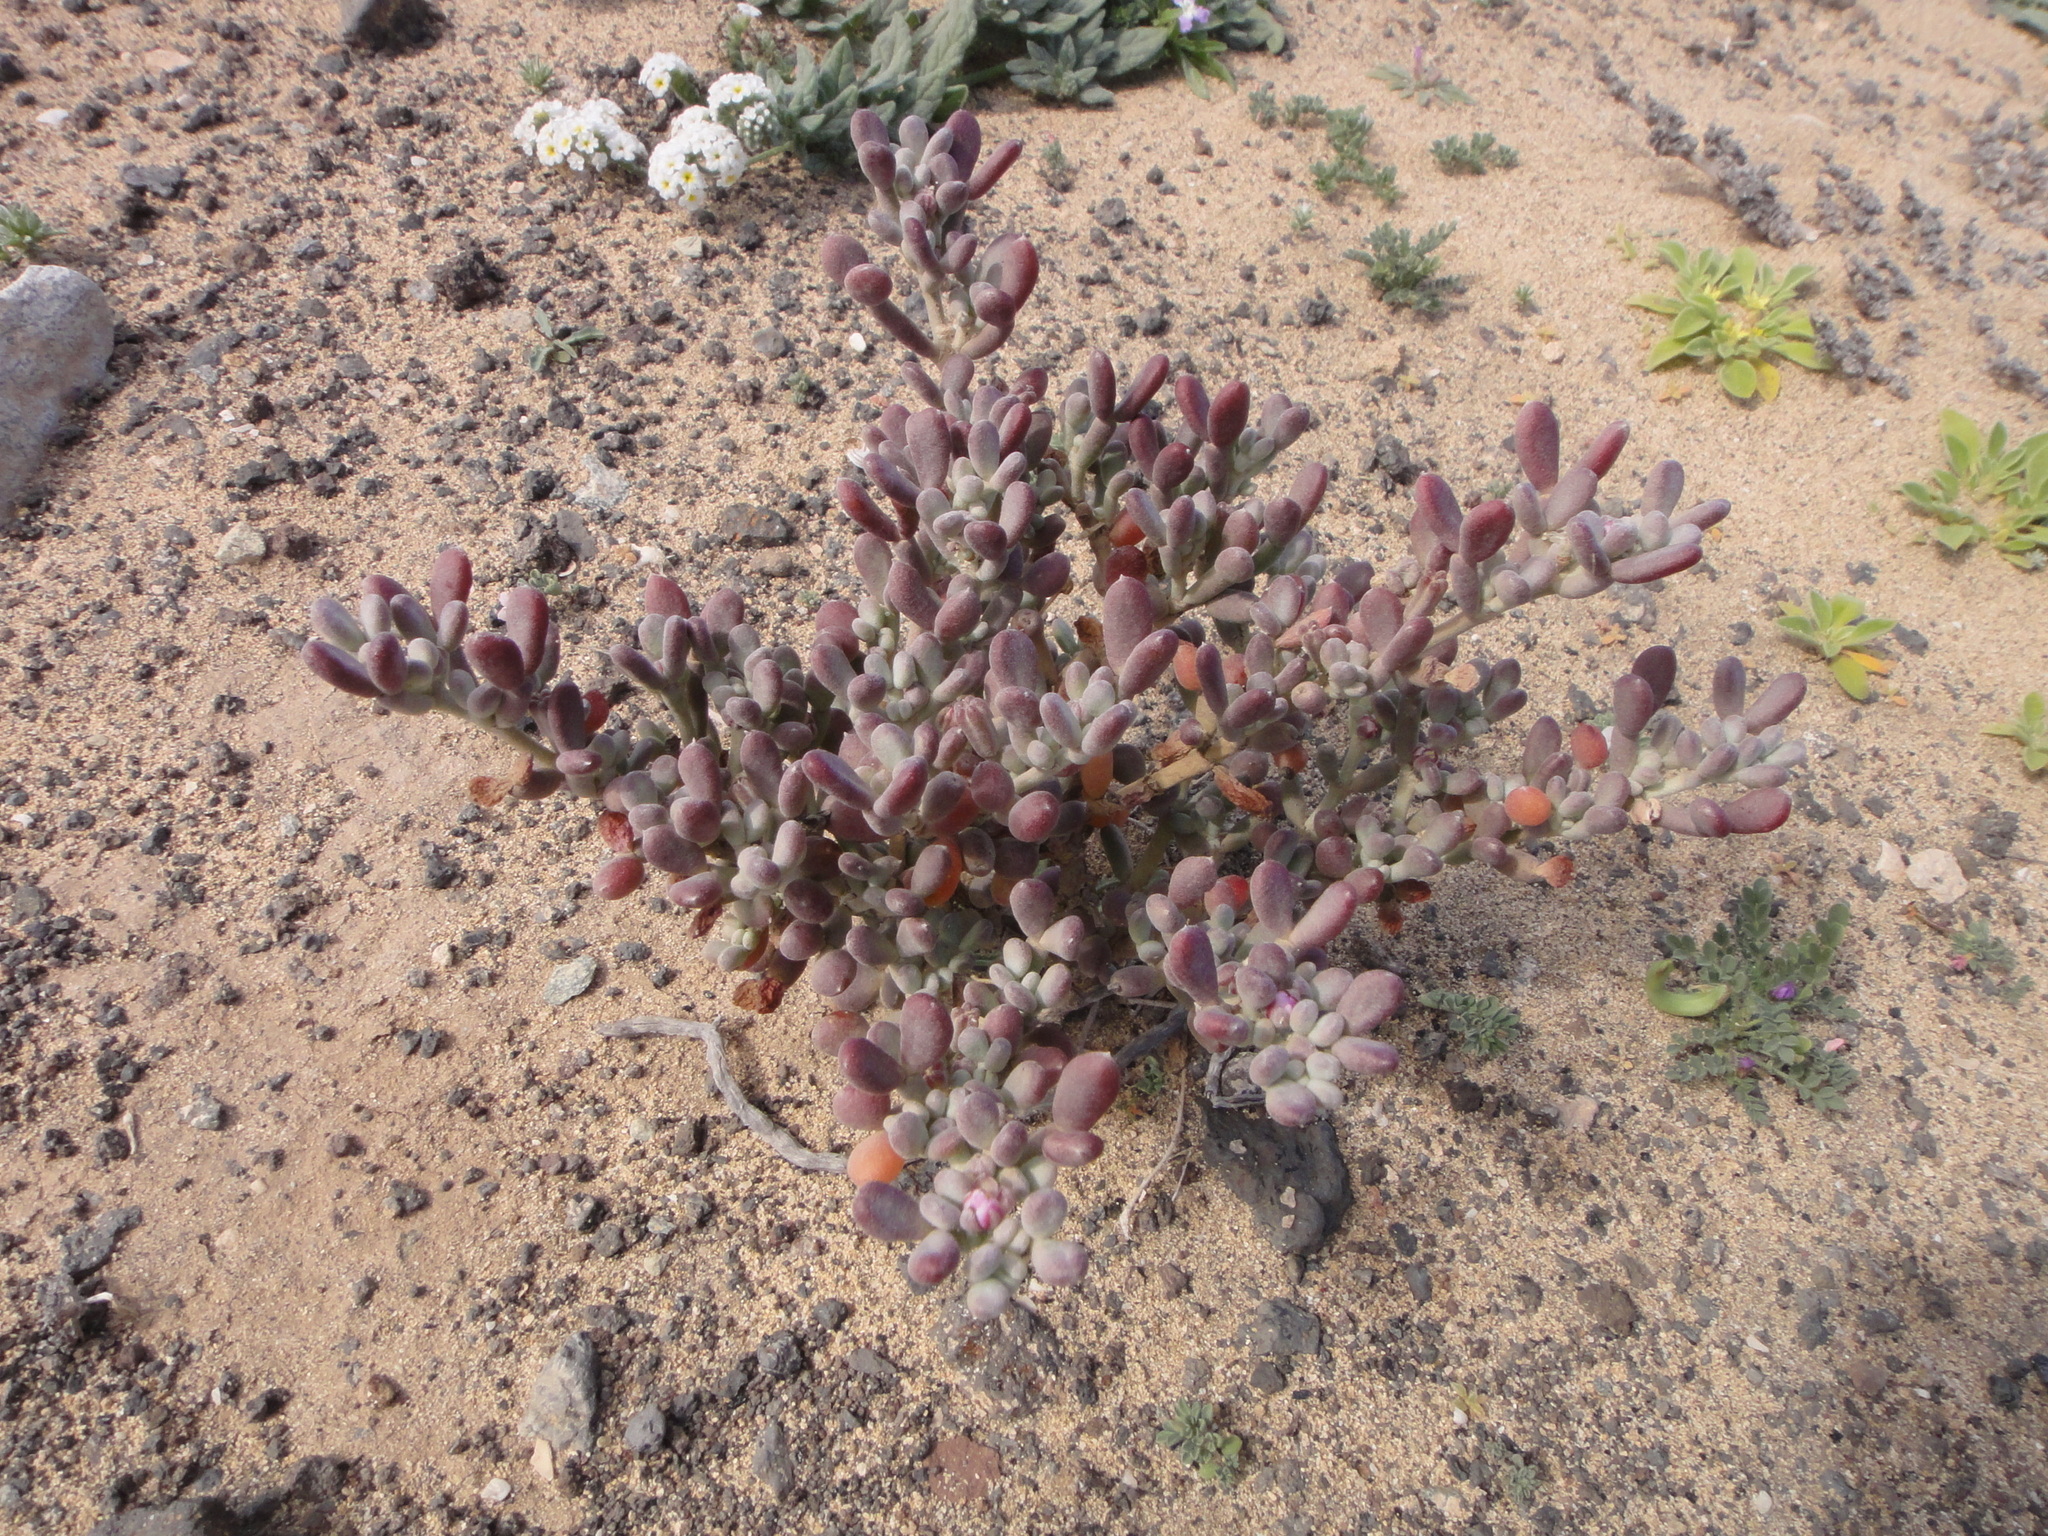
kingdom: Plantae
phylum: Tracheophyta
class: Magnoliopsida
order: Zygophyllales
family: Zygophyllaceae
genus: Tetraena
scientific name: Tetraena gaetula
